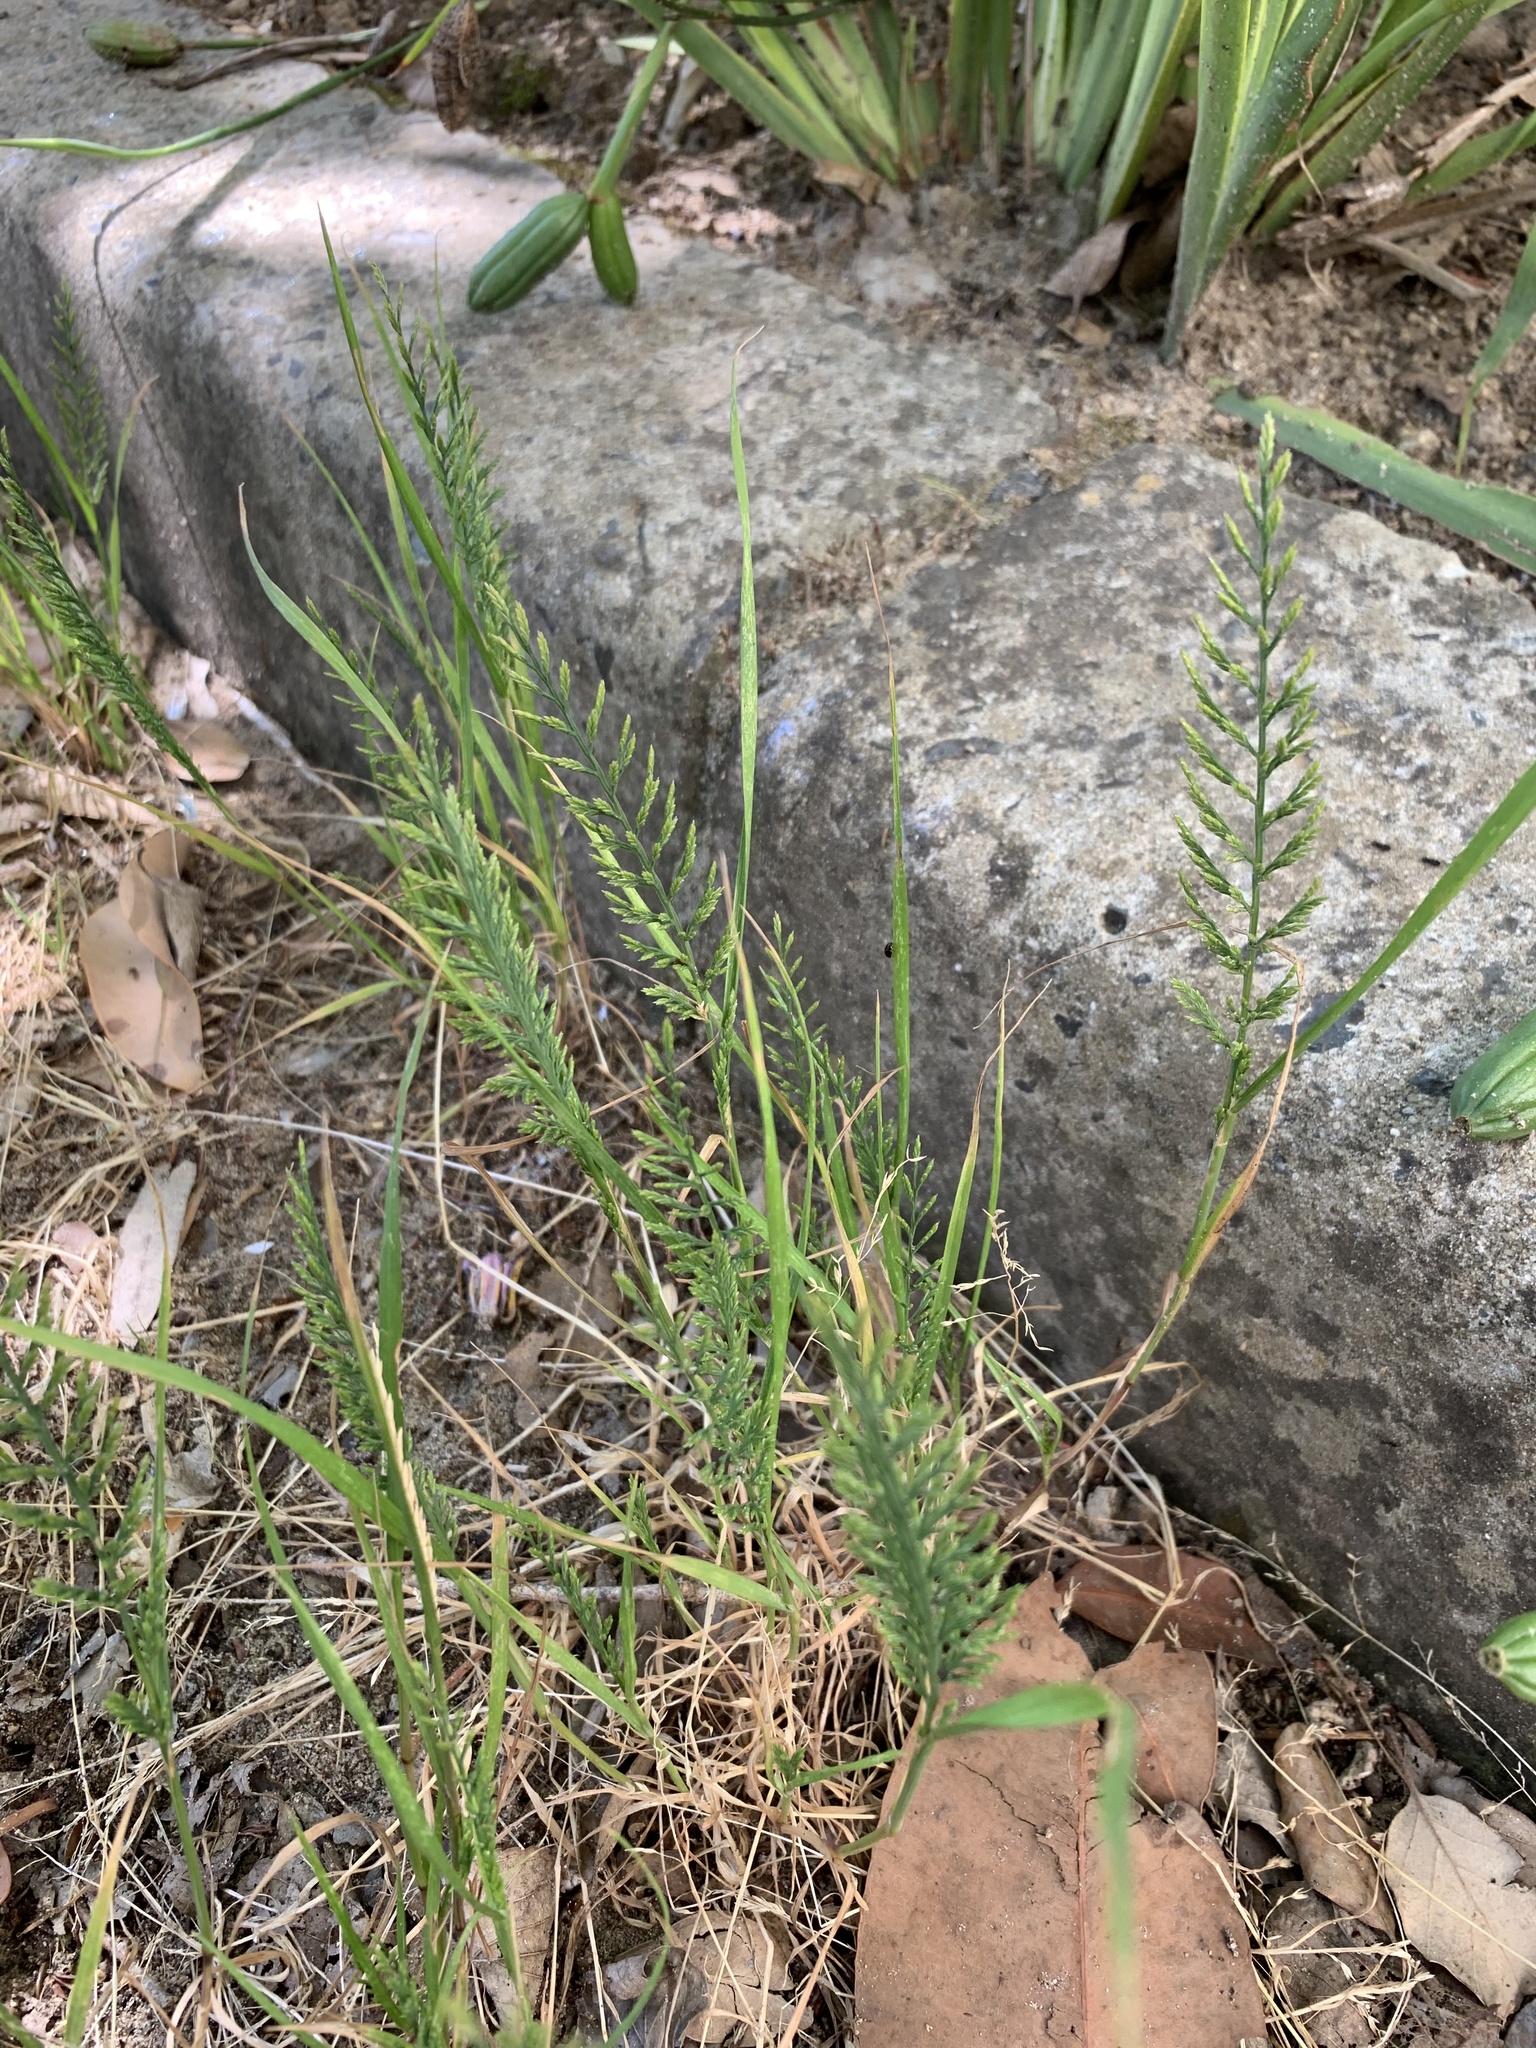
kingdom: Plantae
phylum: Tracheophyta
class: Liliopsida
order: Poales
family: Poaceae
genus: Catapodium
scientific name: Catapodium rigidum
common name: Fern-grass
